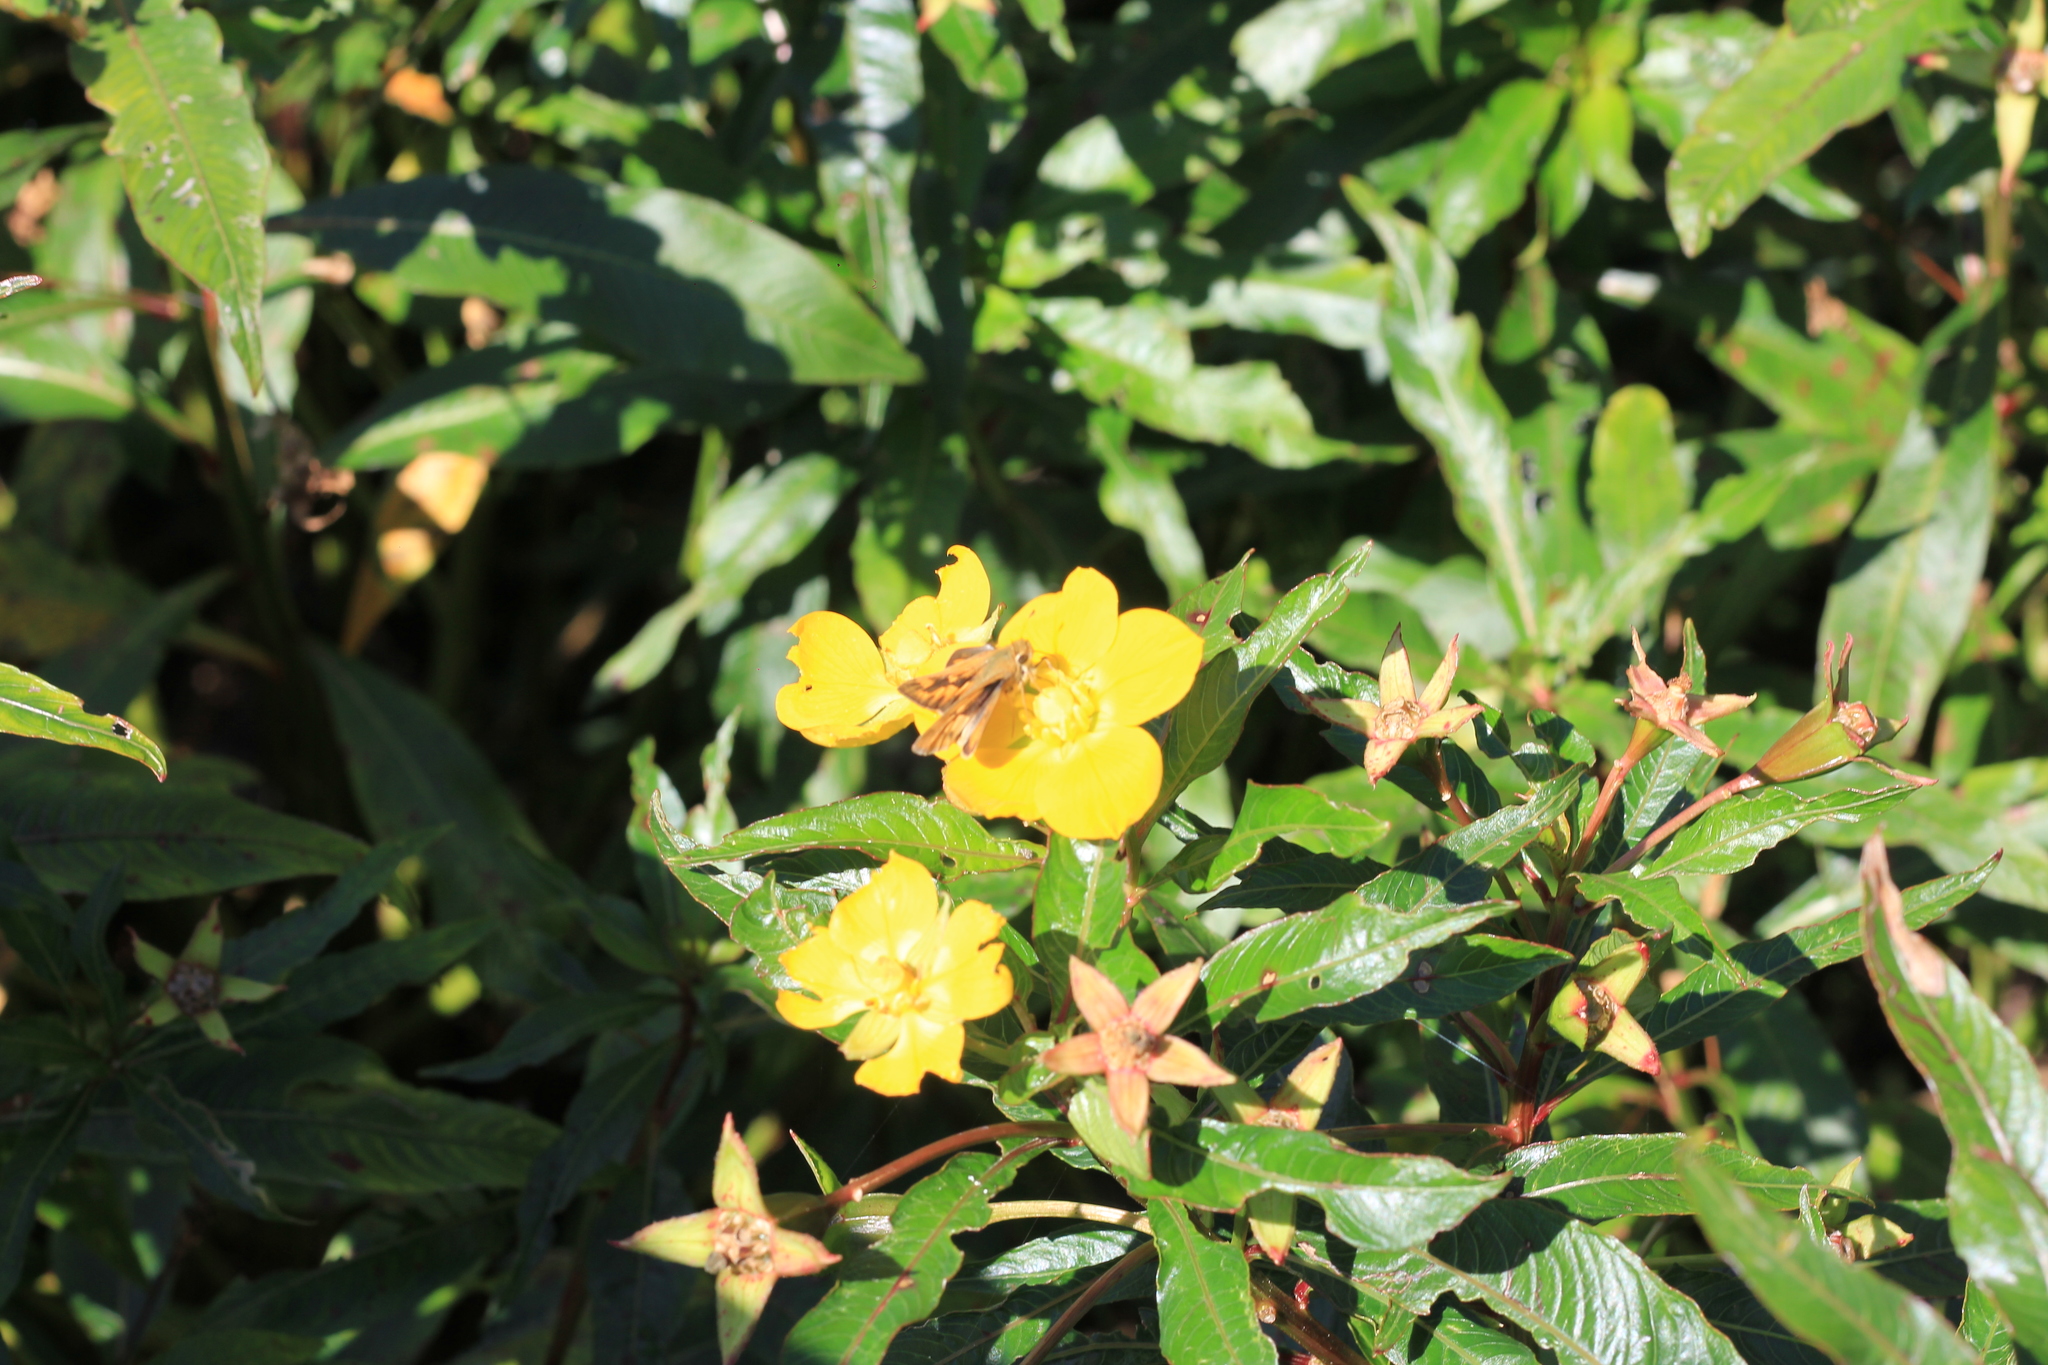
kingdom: Animalia
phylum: Arthropoda
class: Insecta
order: Lepidoptera
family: Hesperiidae
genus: Hylephila
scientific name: Hylephila phyleus
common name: Fiery skipper
